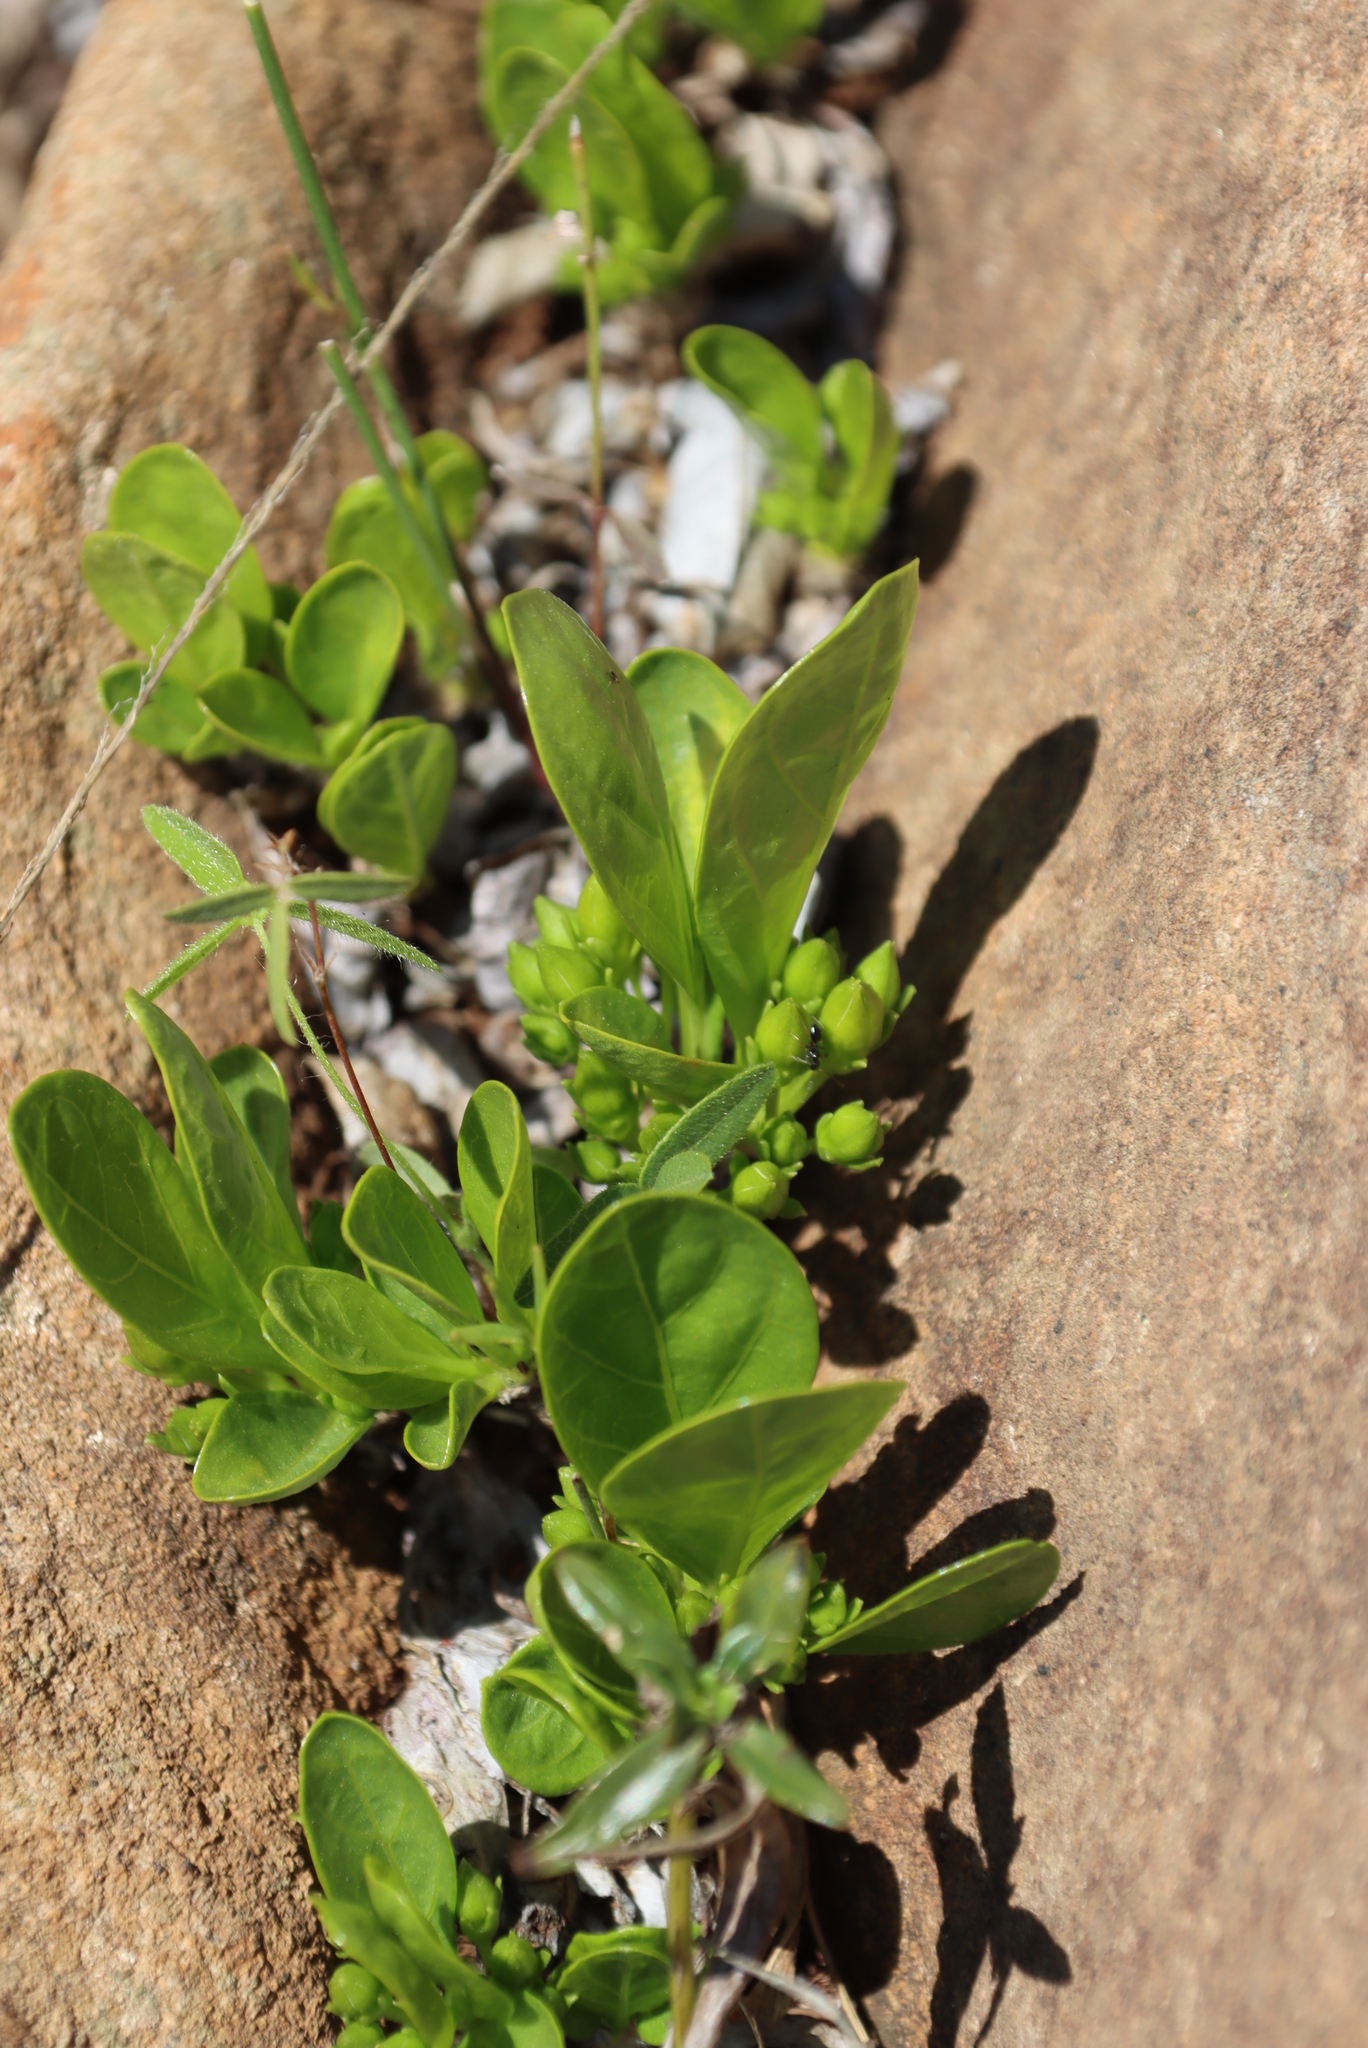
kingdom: Plantae
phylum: Tracheophyta
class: Magnoliopsida
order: Gentianales
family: Rubiaceae
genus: Pygmaeothamnus
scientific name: Pygmaeothamnus zeyheri
